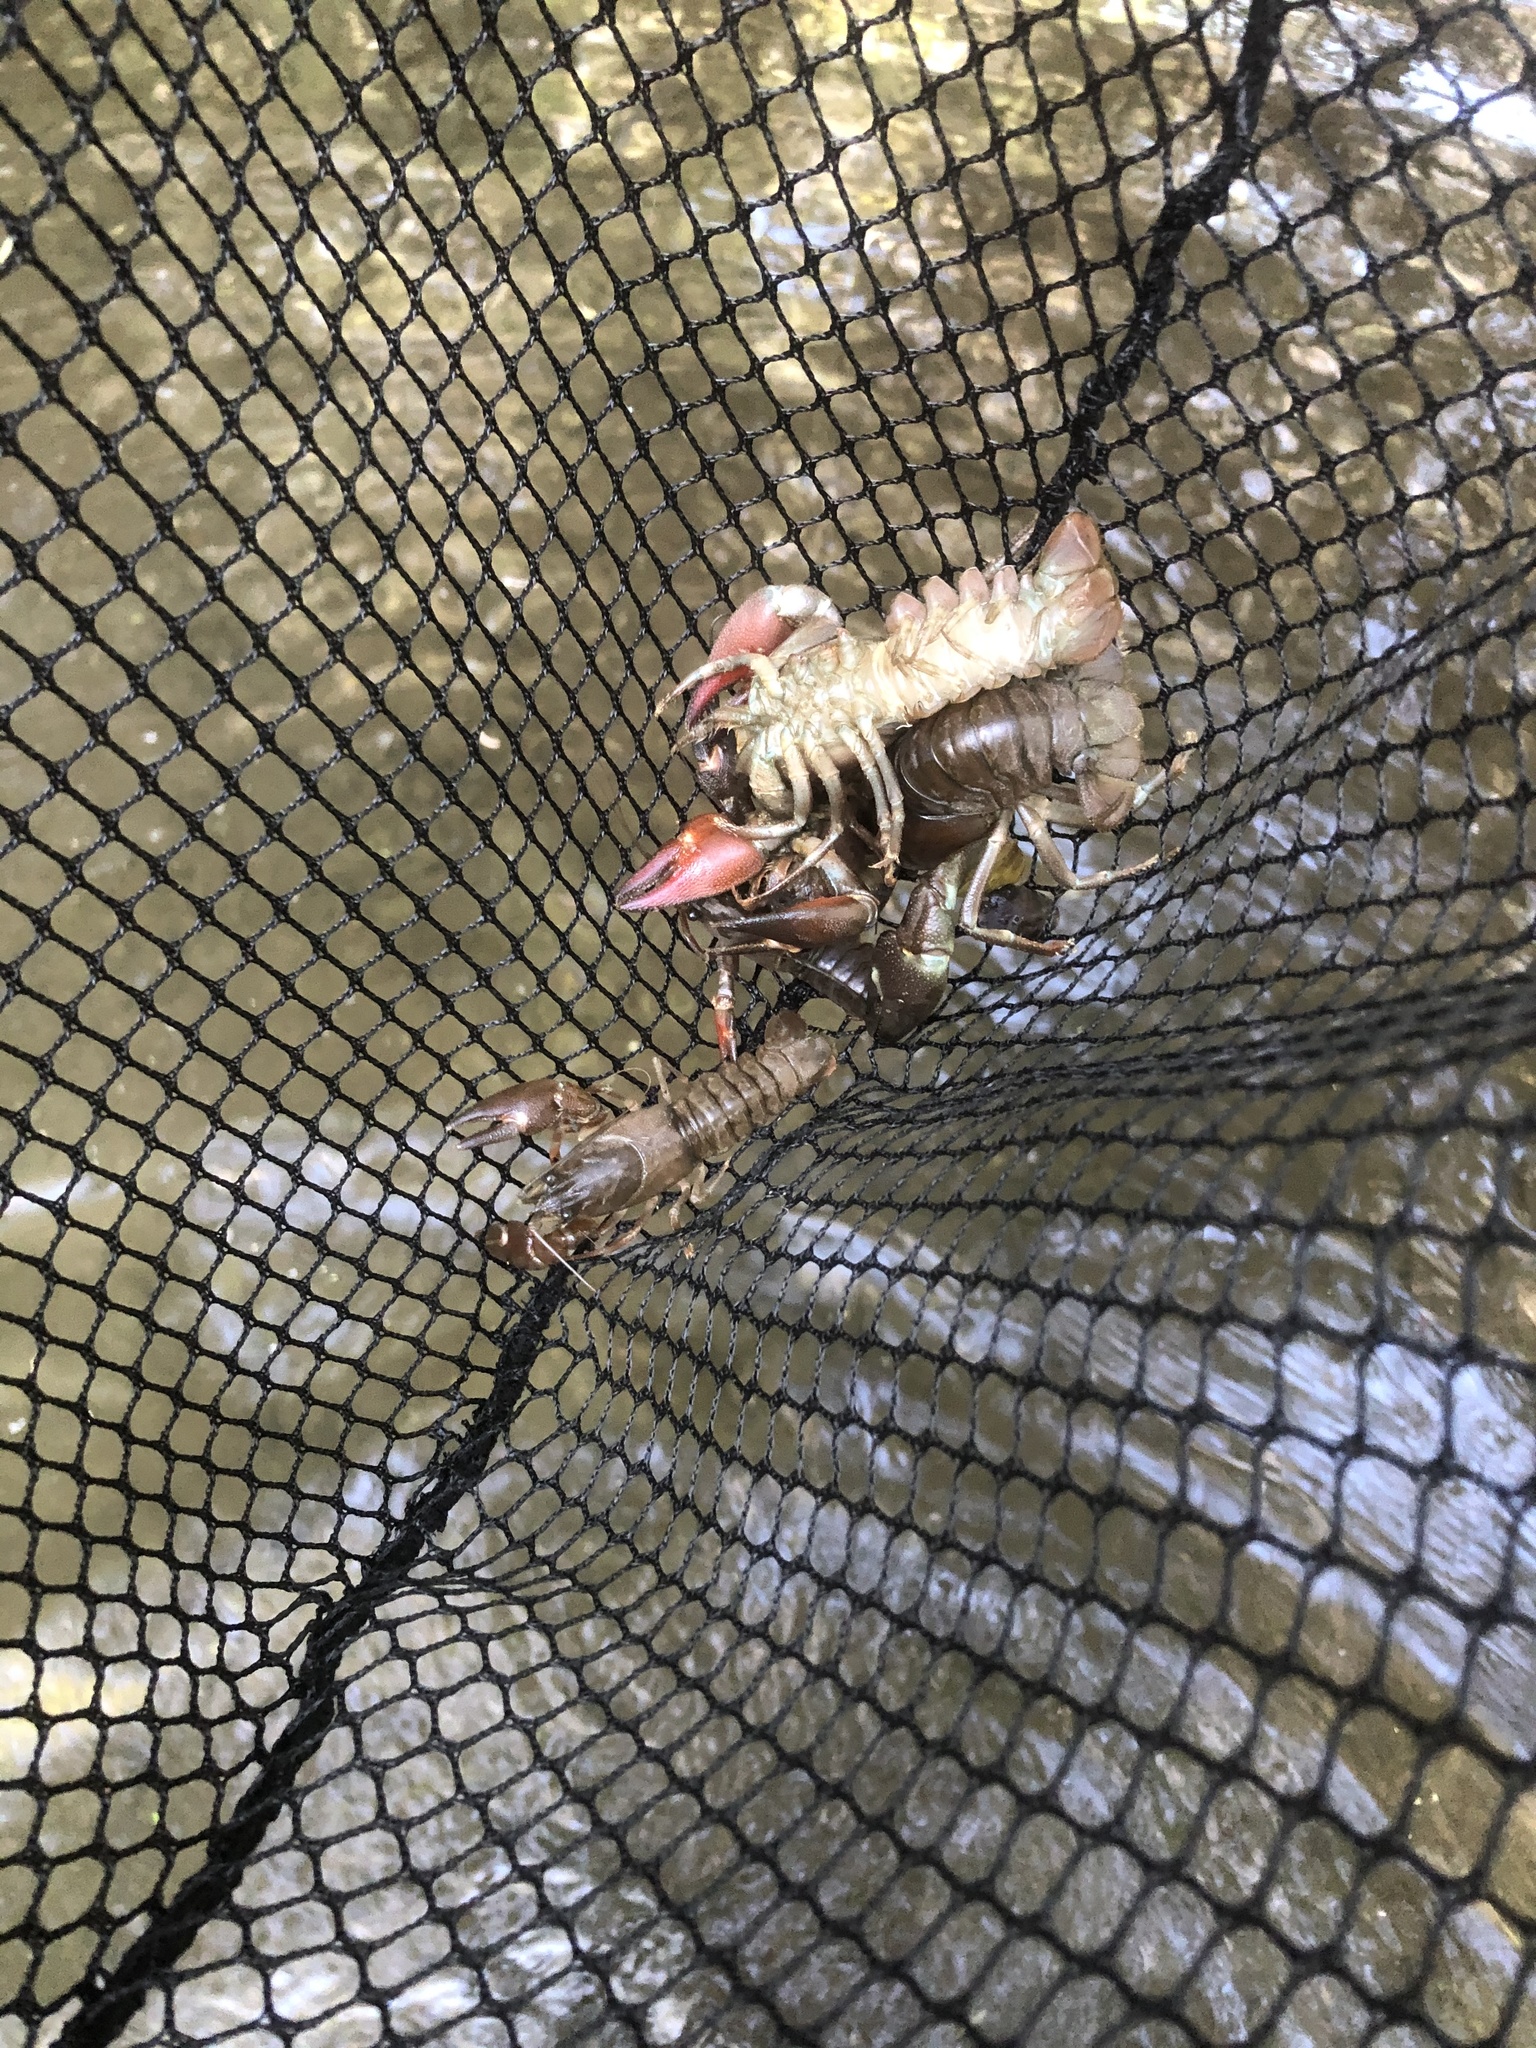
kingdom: Animalia
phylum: Arthropoda
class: Malacostraca
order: Decapoda
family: Astacidae
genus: Pacifastacus
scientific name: Pacifastacus leniusculus
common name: Signal crayfish
